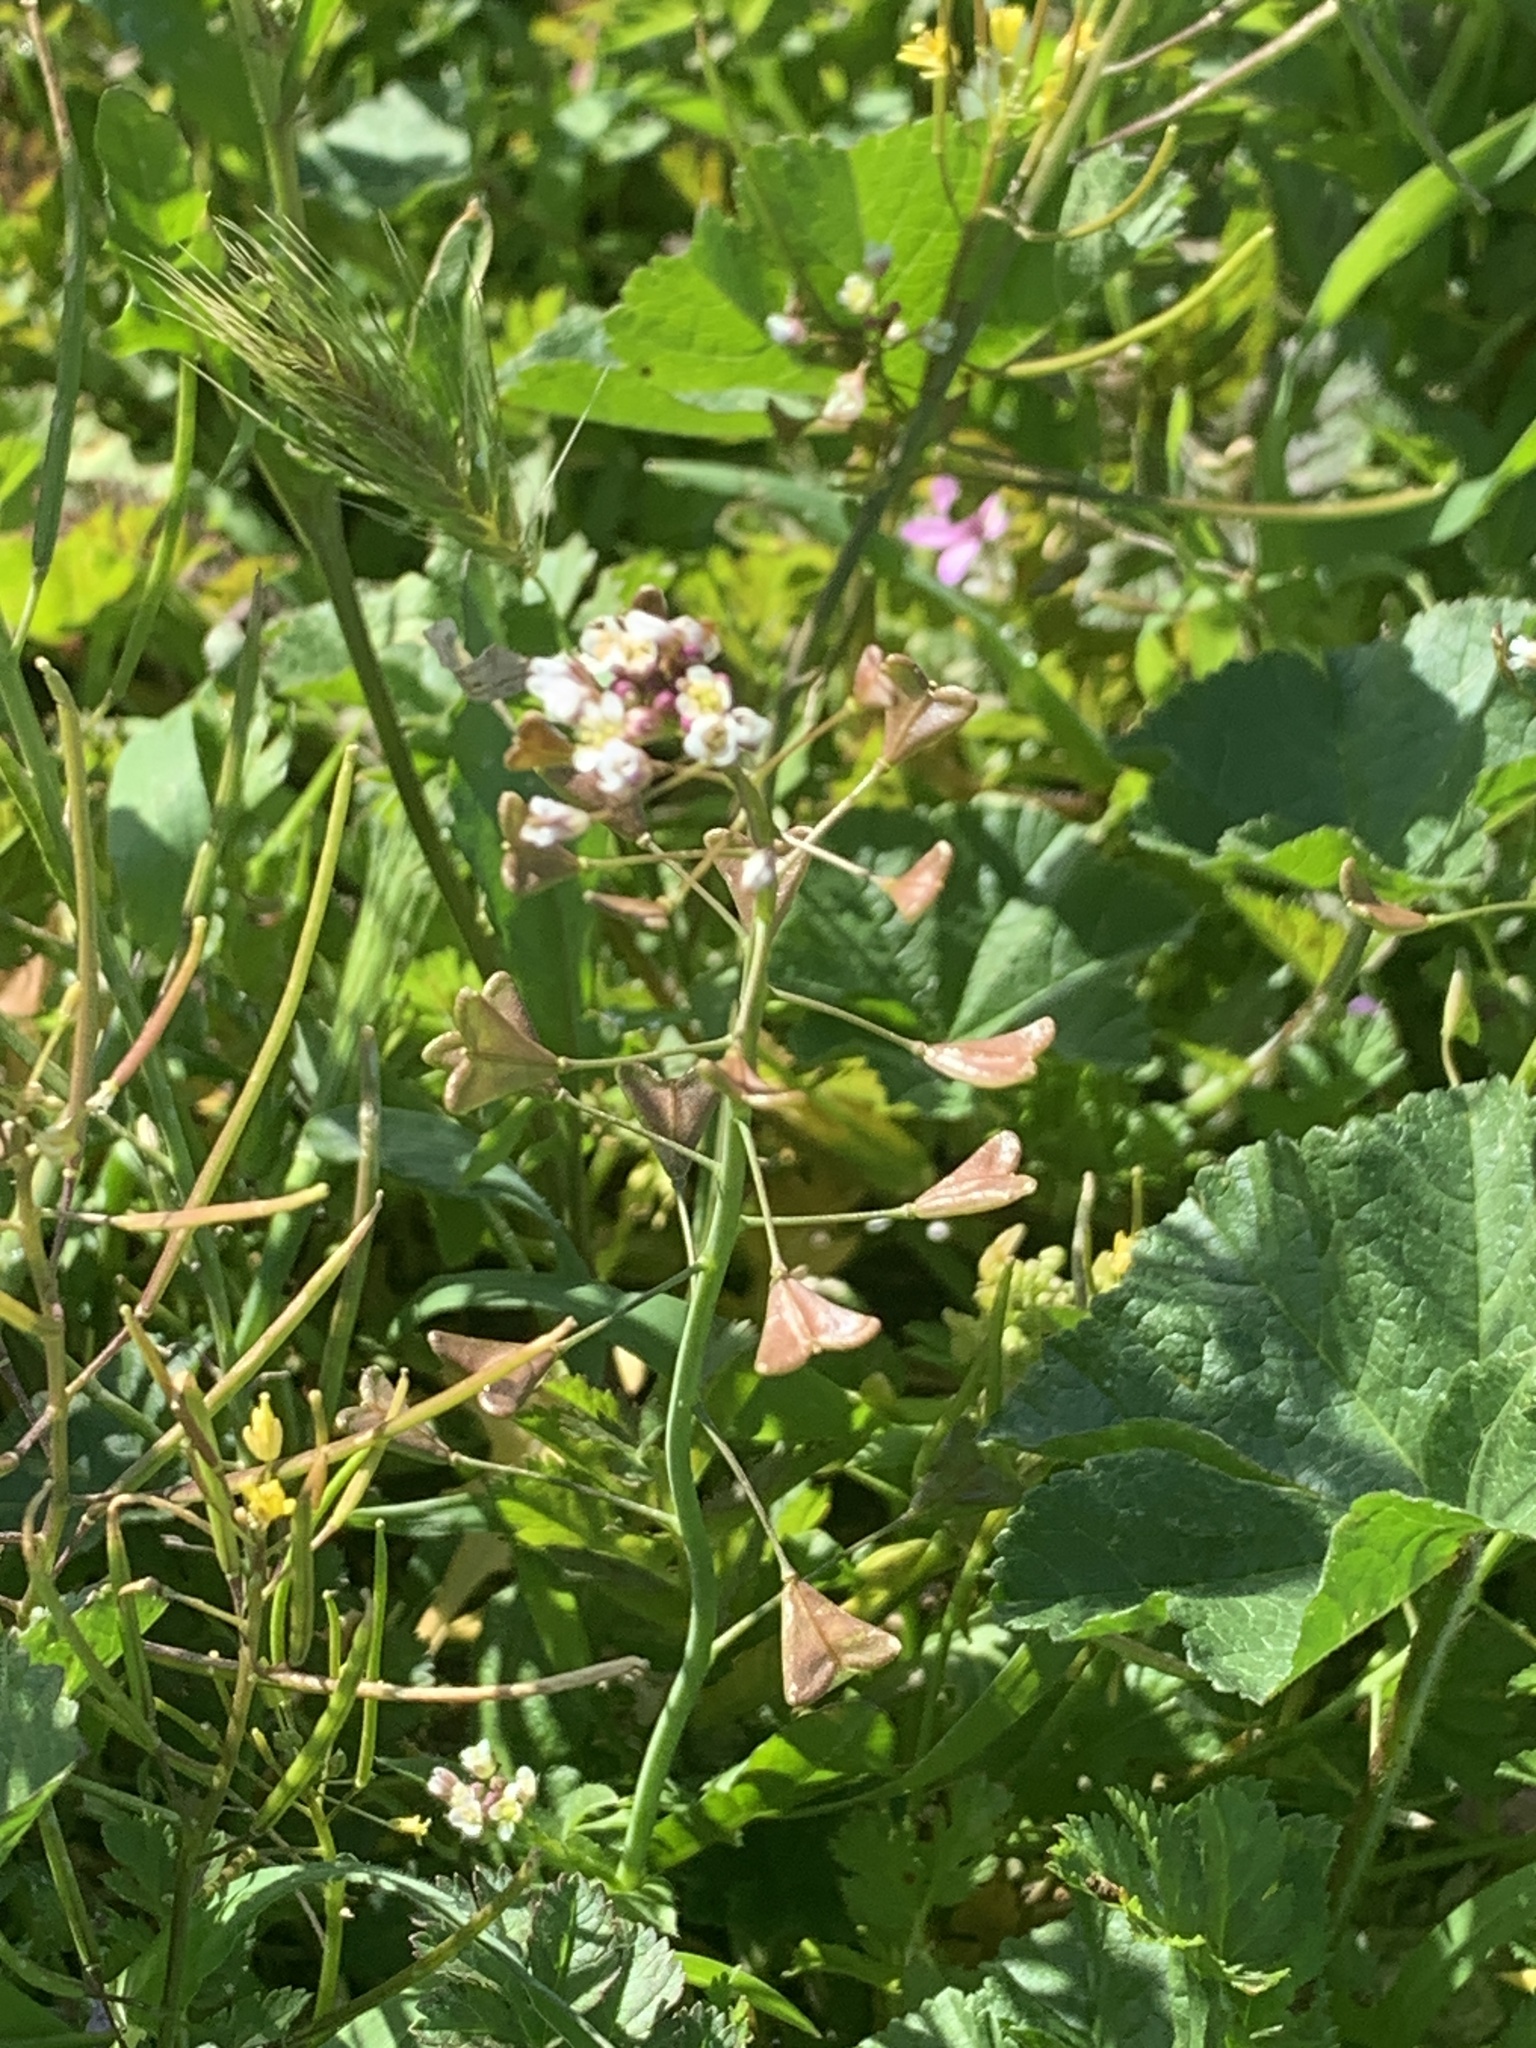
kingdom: Plantae
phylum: Tracheophyta
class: Magnoliopsida
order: Brassicales
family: Brassicaceae
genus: Capsella
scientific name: Capsella bursa-pastoris
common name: Shepherd's purse
